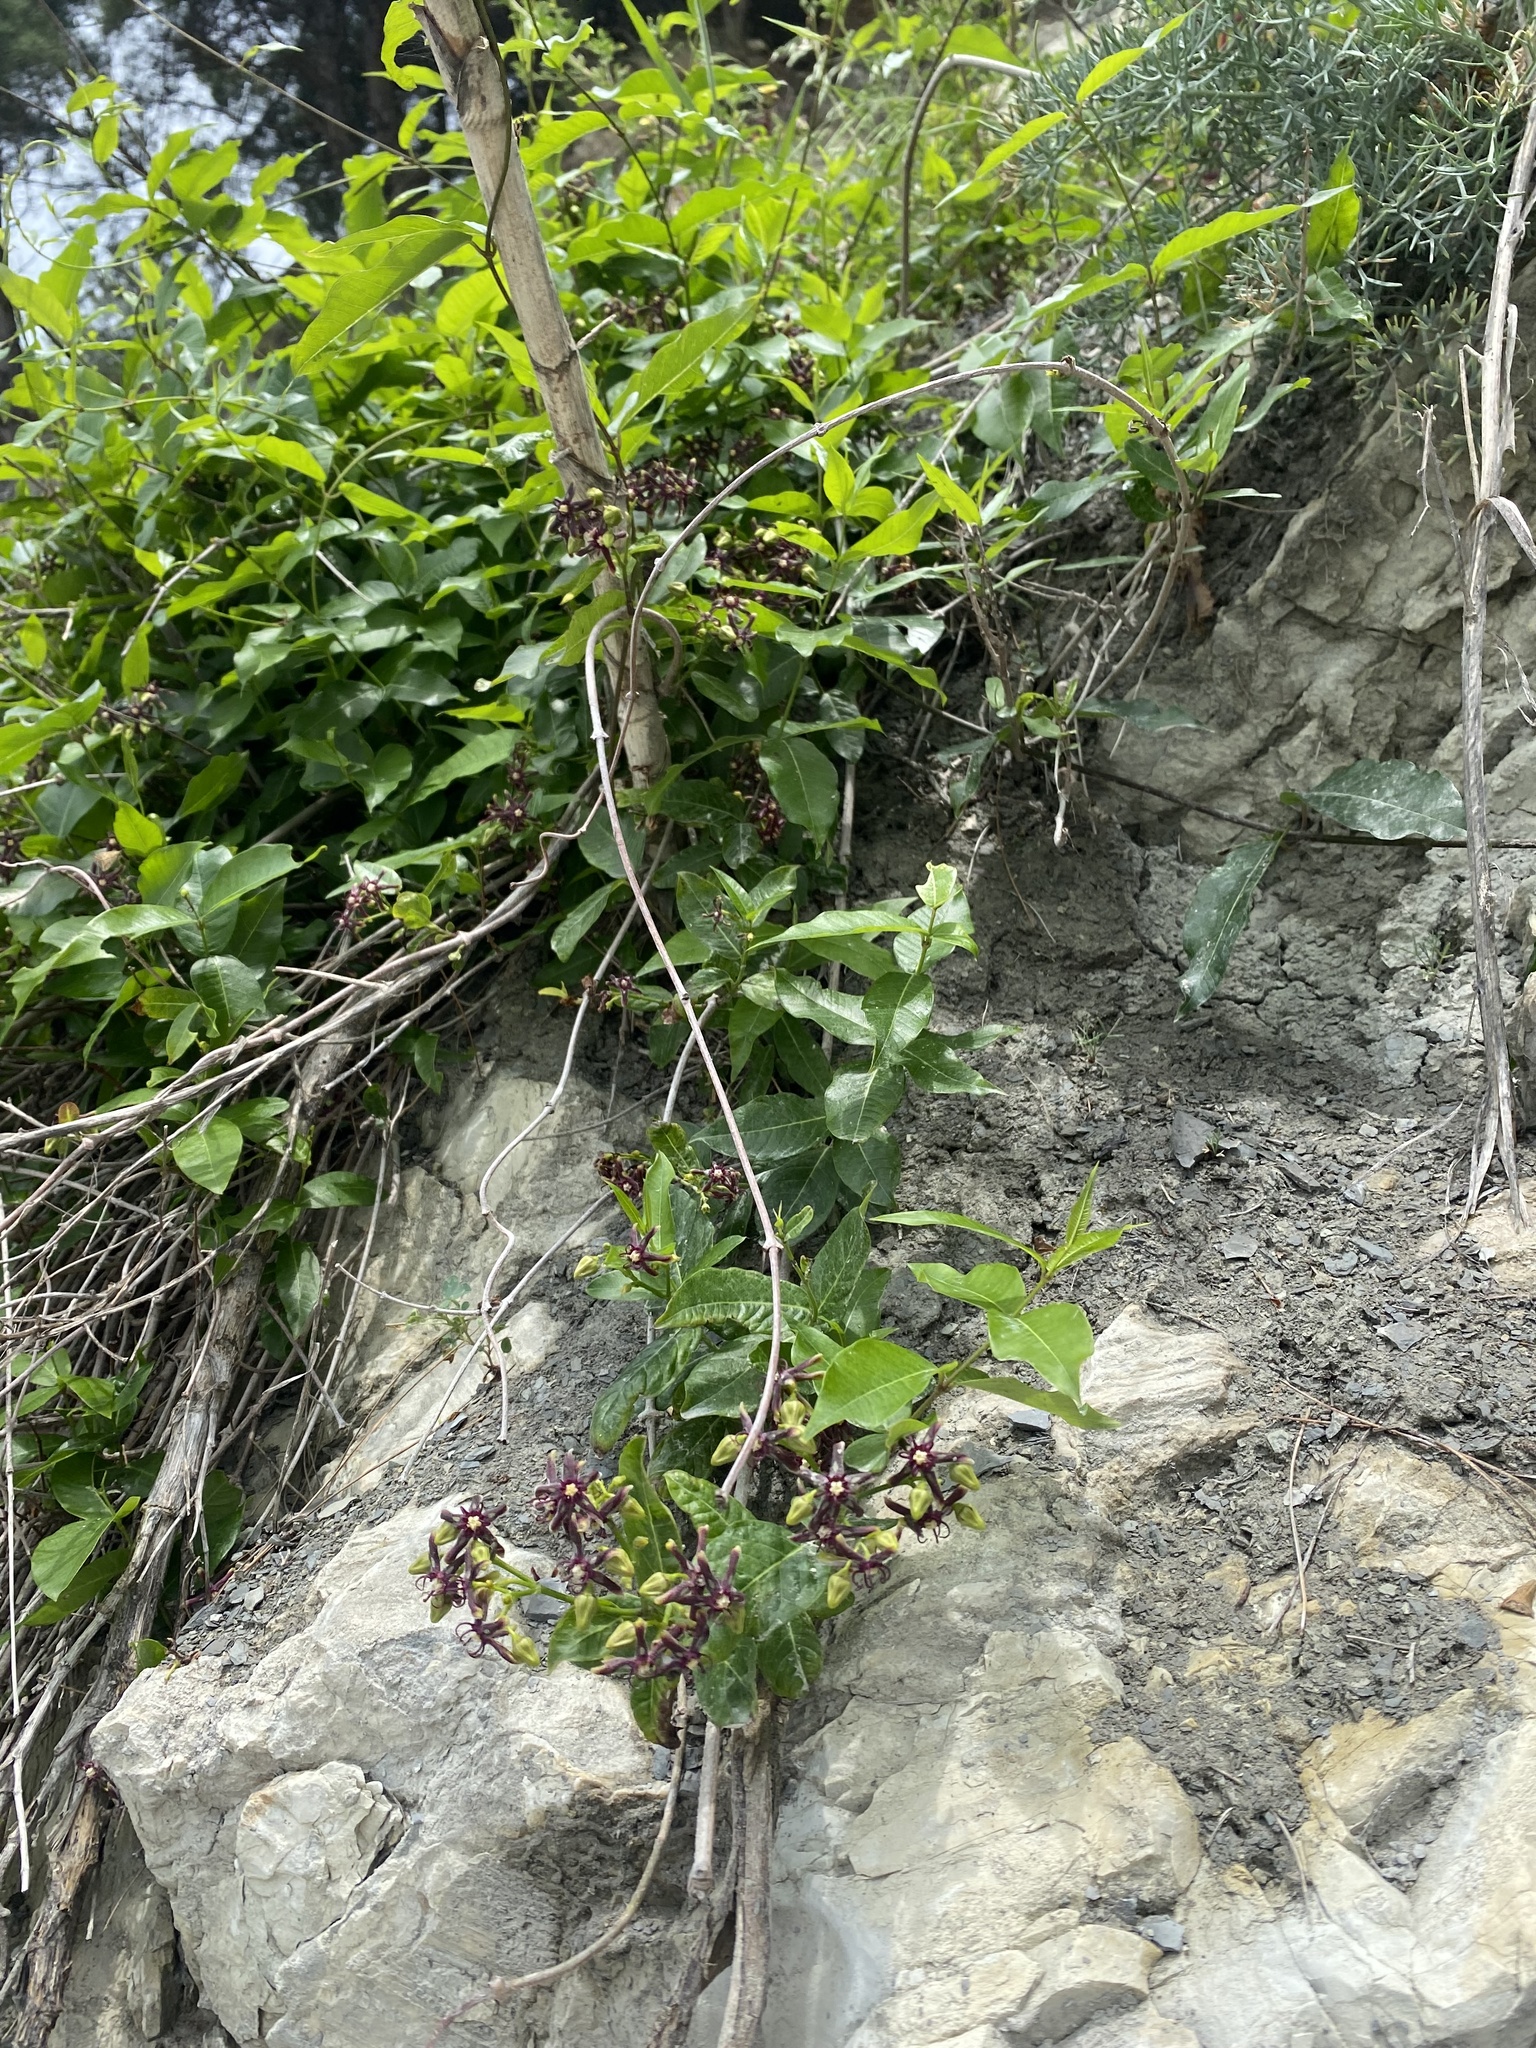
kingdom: Plantae
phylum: Tracheophyta
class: Magnoliopsida
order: Gentianales
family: Apocynaceae
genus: Periploca
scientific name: Periploca graeca
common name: Silkvine
